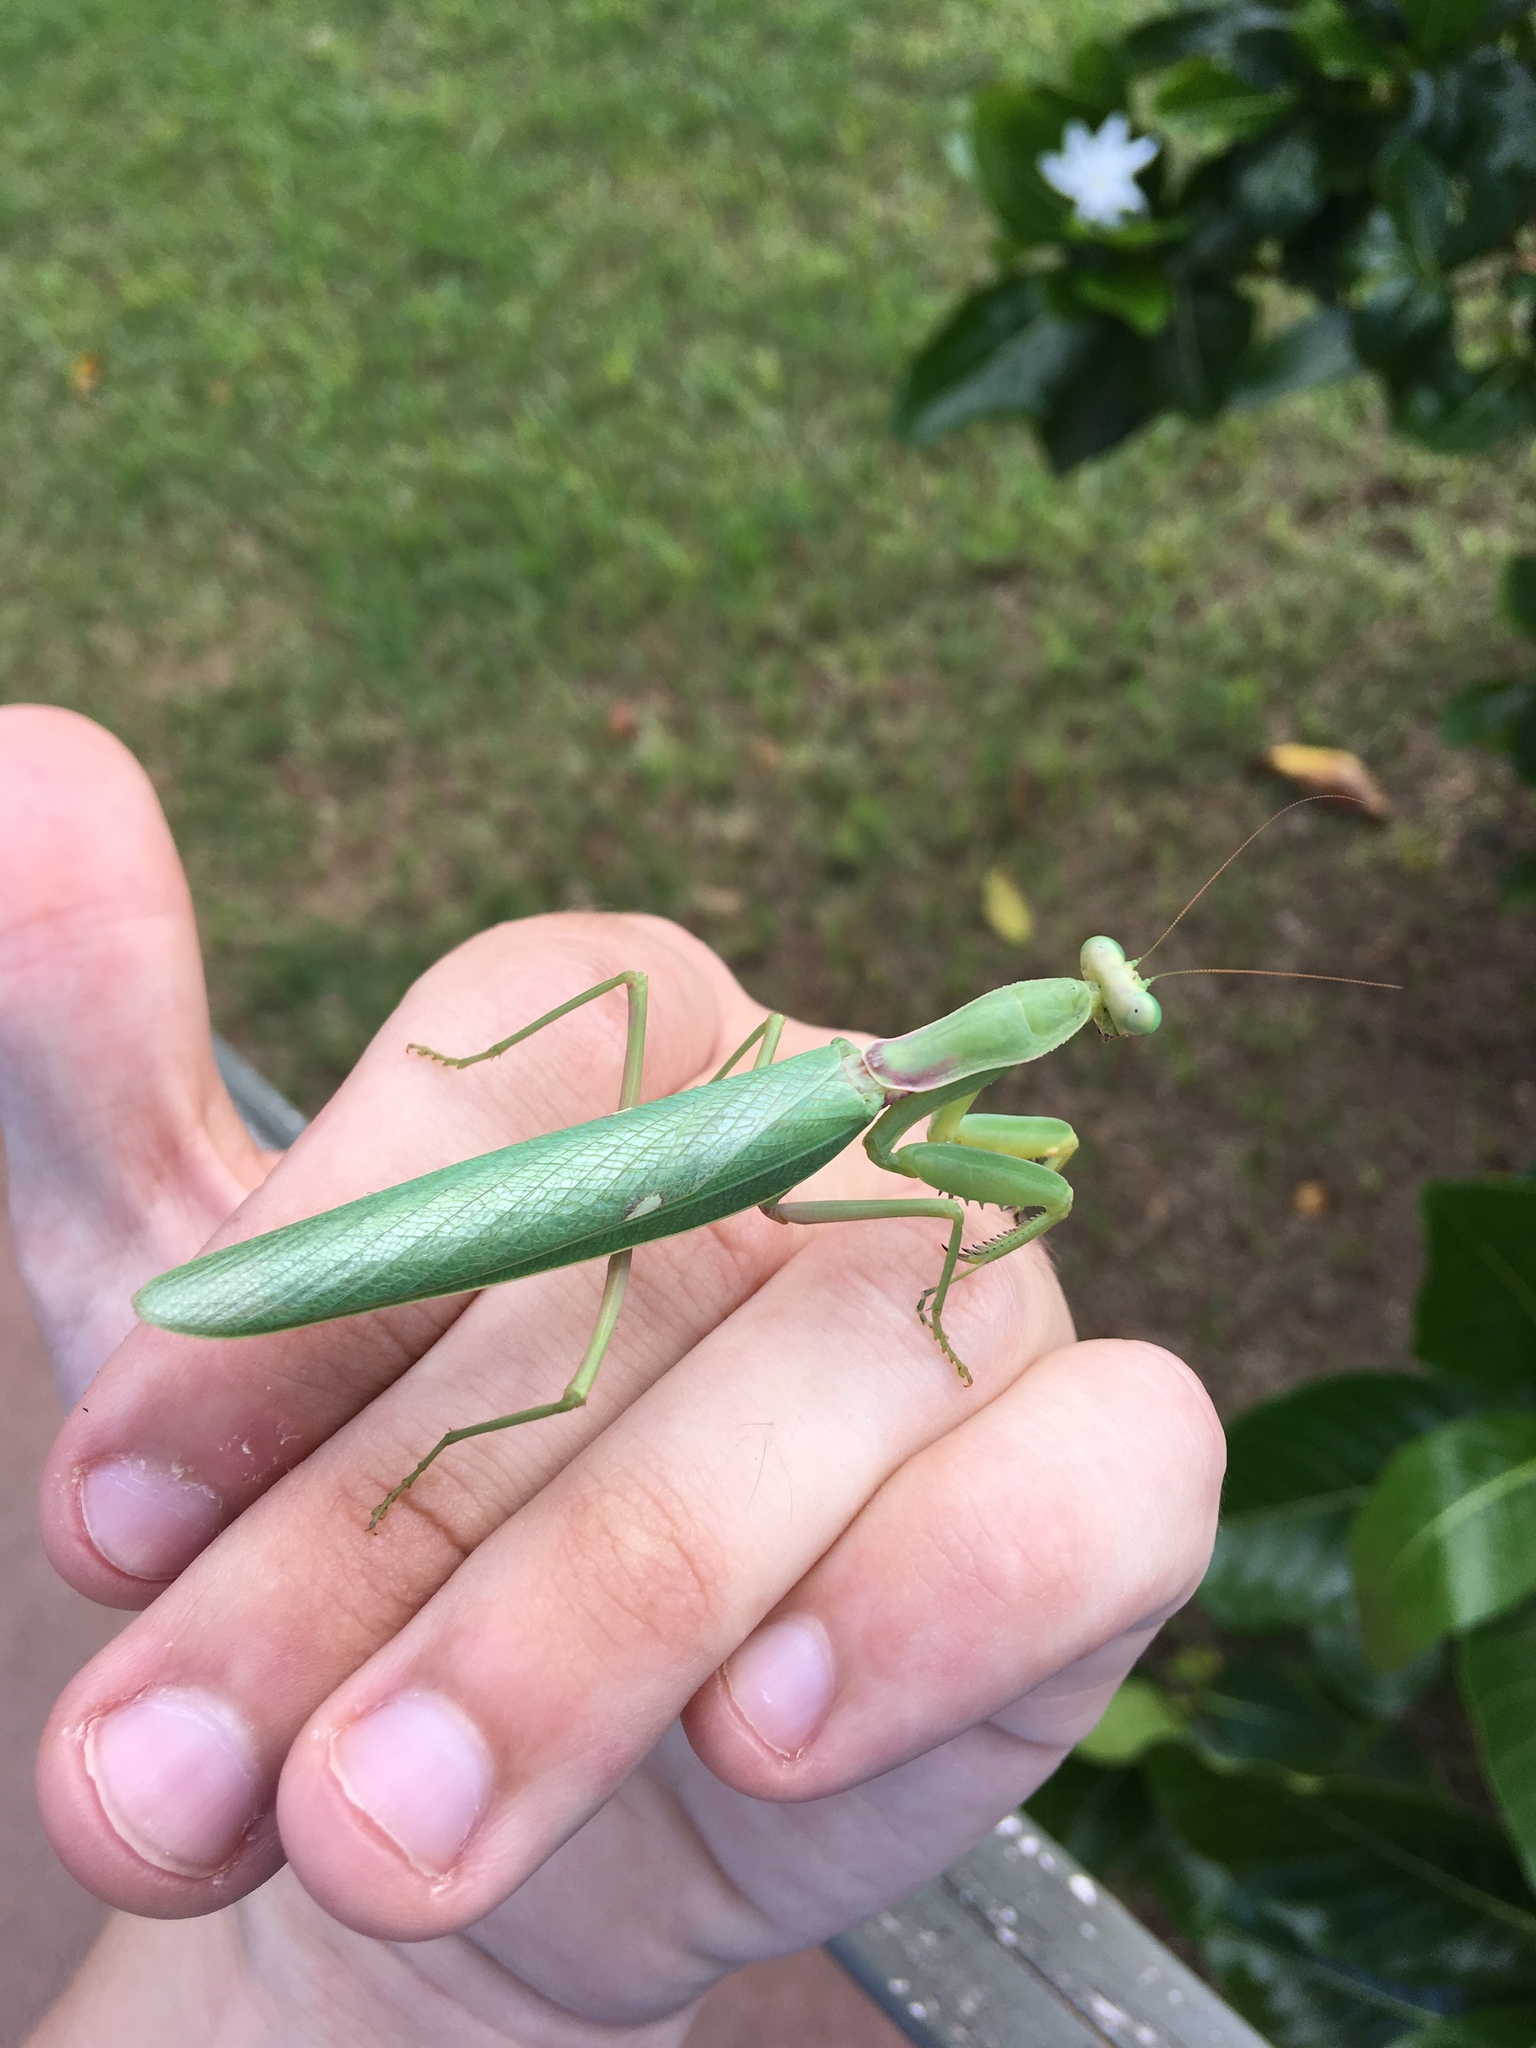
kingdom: Animalia
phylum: Arthropoda
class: Insecta
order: Mantodea
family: Mantidae
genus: Hierodula
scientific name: Hierodula patellifera
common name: Asian mantis
